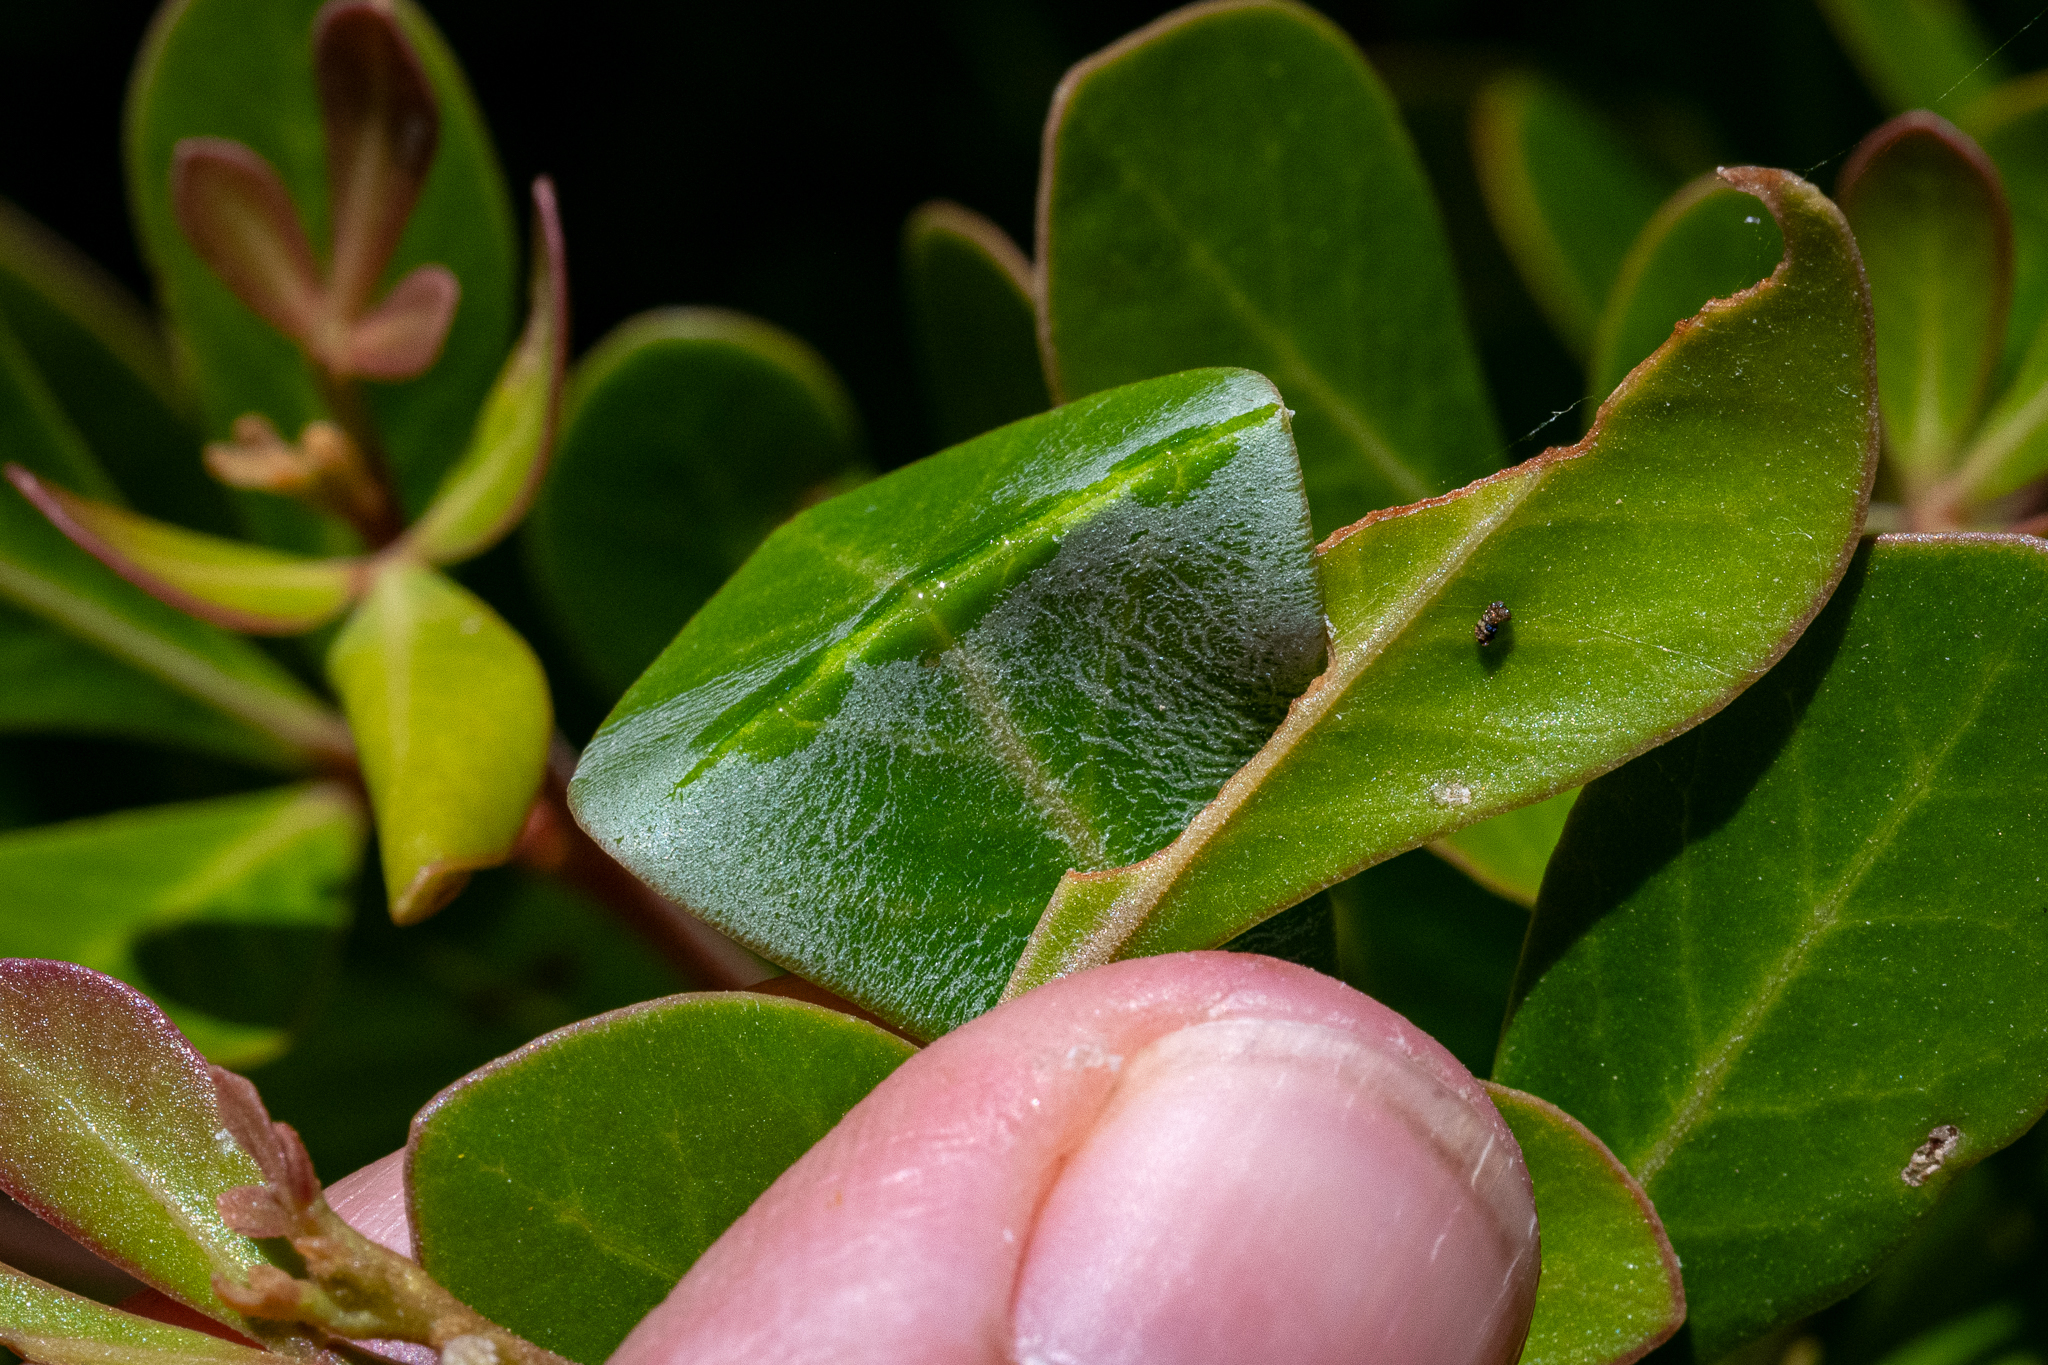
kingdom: Plantae
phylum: Tracheophyta
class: Magnoliopsida
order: Sapindales
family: Anacardiaceae
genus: Searsia
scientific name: Searsia lucida
